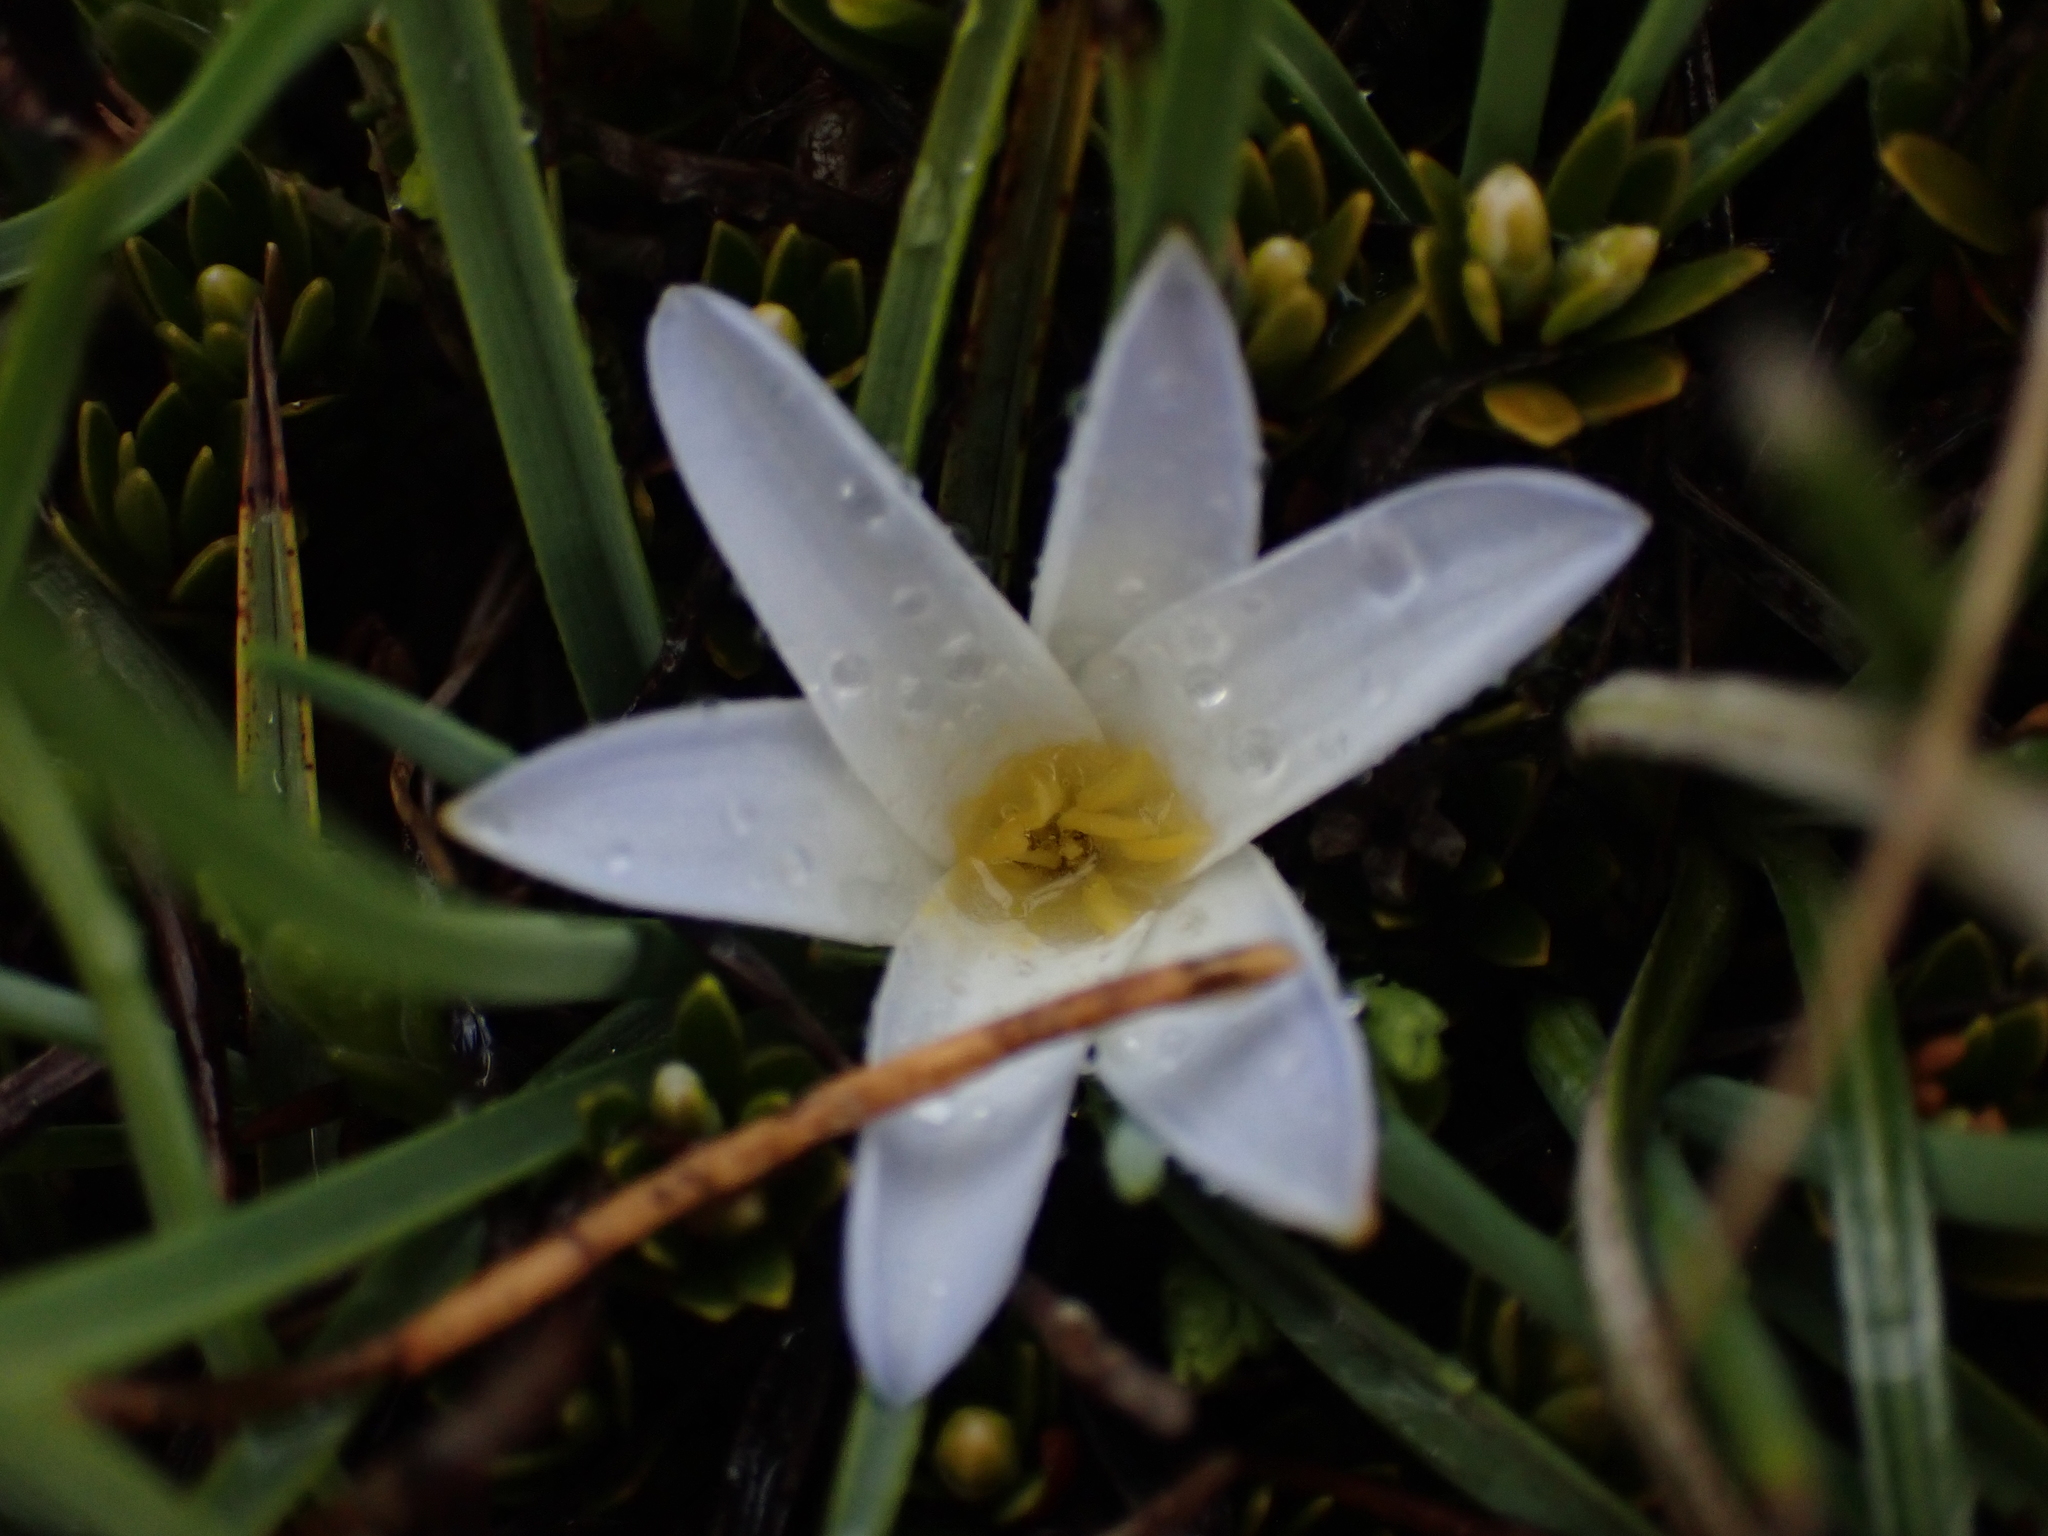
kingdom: Plantae
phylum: Tracheophyta
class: Liliopsida
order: Asparagales
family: Asphodelaceae
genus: Herpolirion
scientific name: Herpolirion novae-zelandiae
